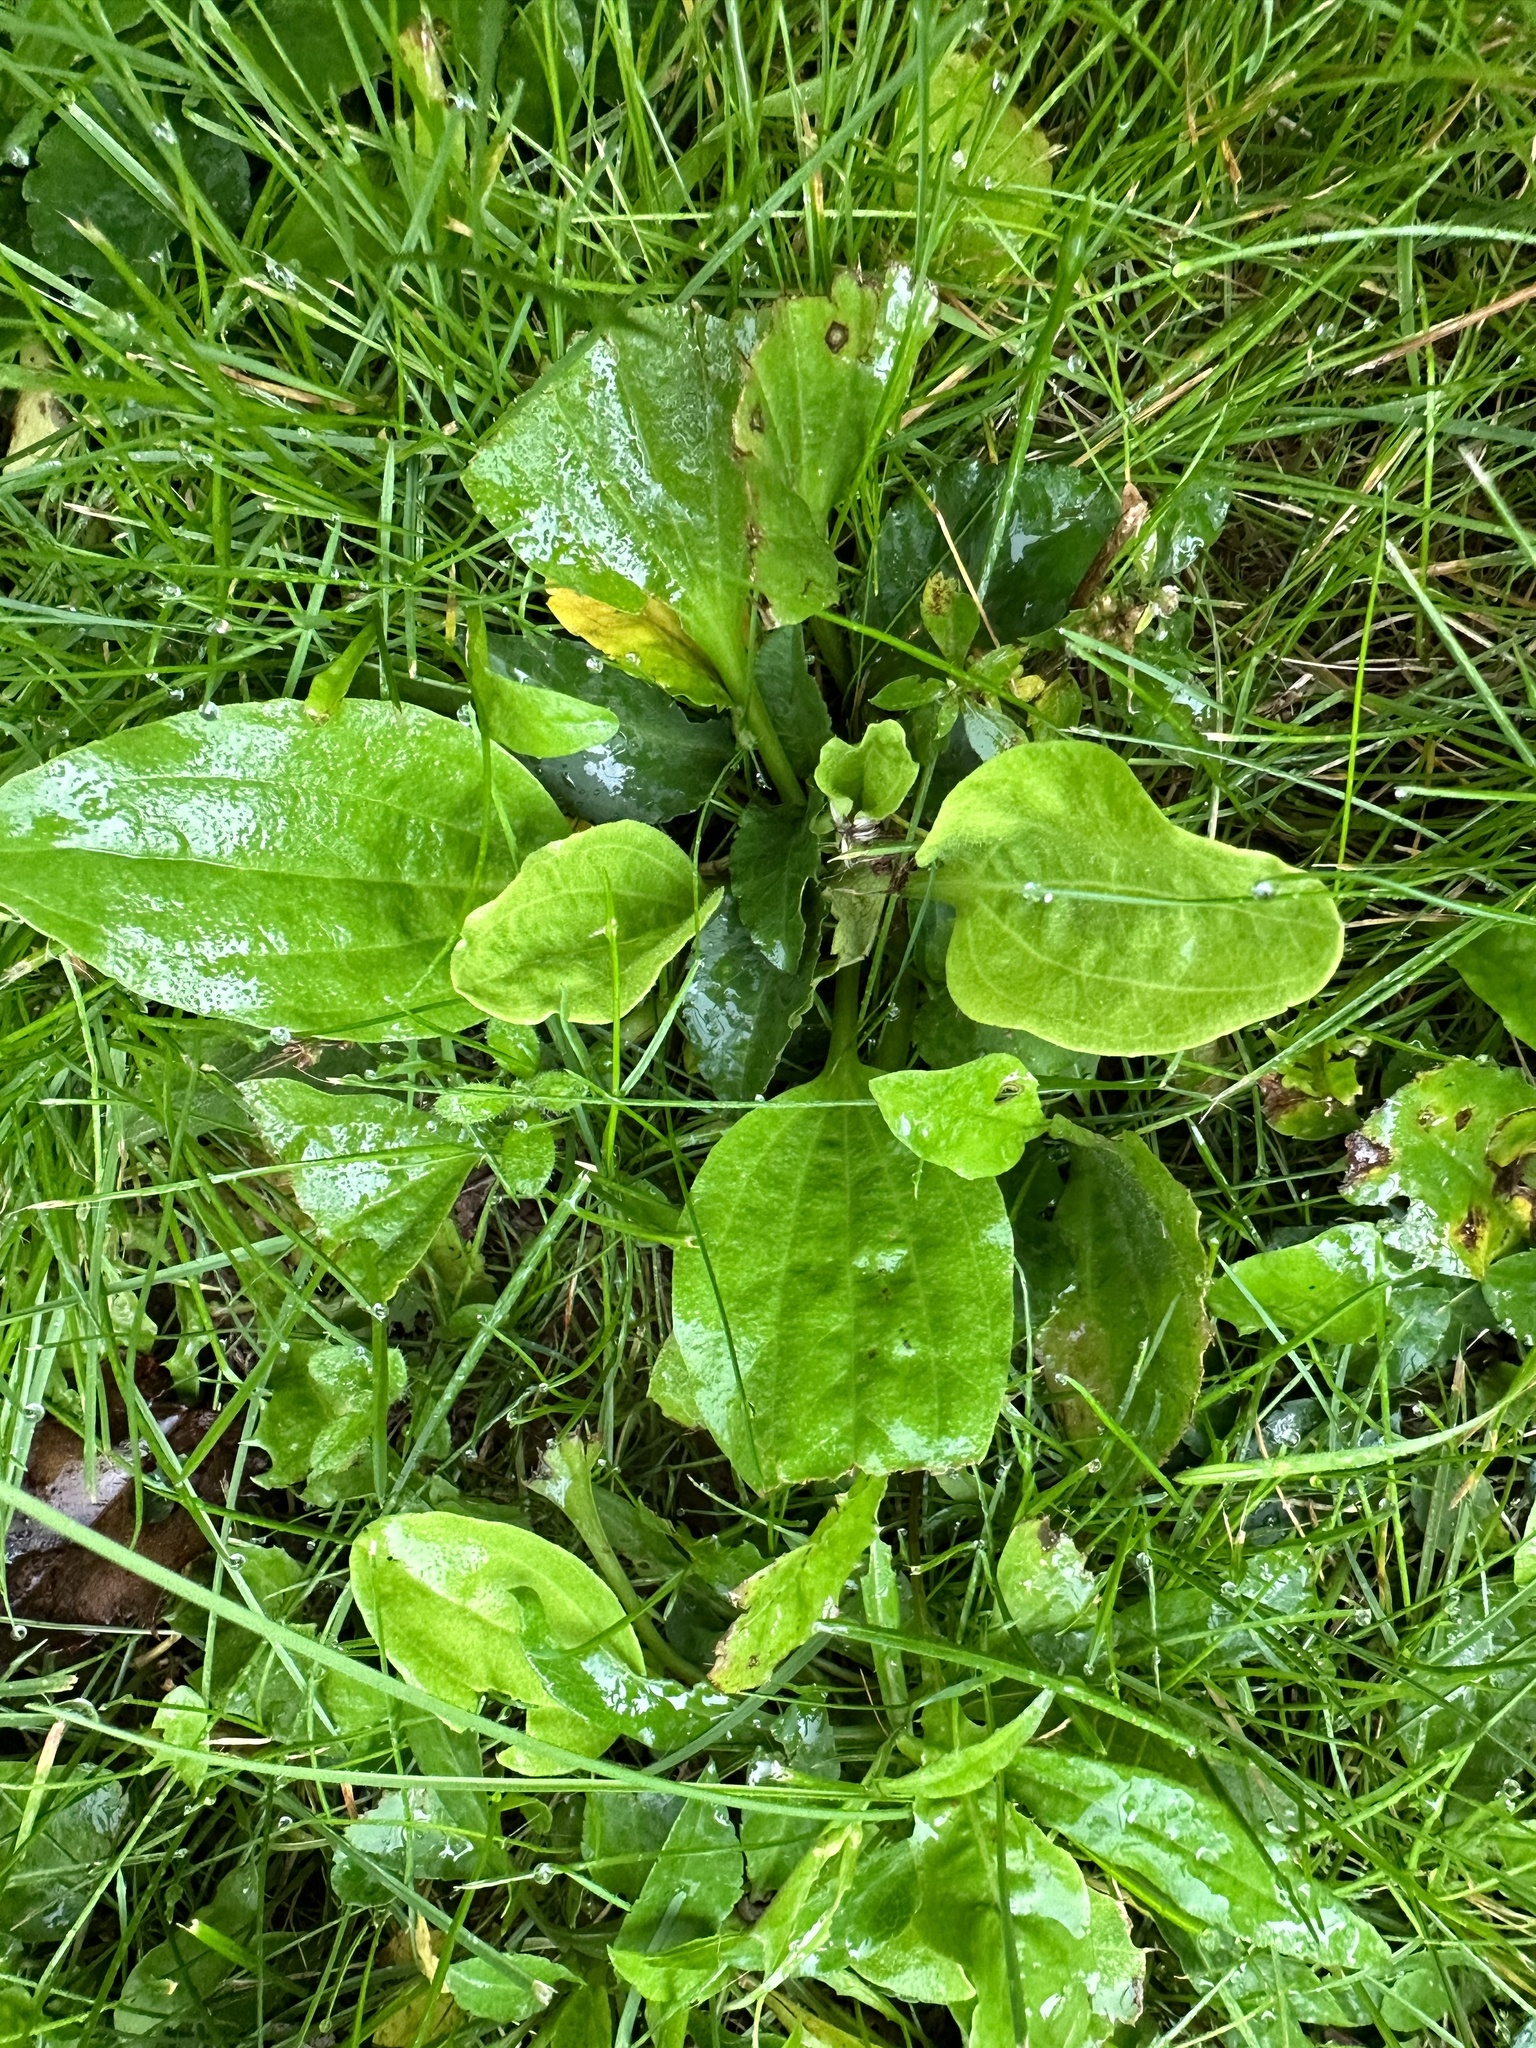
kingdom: Plantae
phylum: Tracheophyta
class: Magnoliopsida
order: Lamiales
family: Plantaginaceae
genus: Plantago
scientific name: Plantago major
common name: Common plantain
